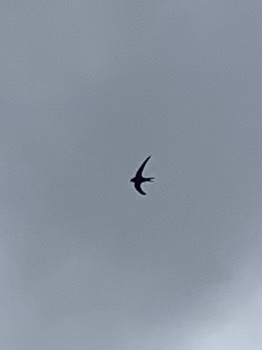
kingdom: Animalia
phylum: Chordata
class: Aves
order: Apodiformes
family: Apodidae
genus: Apus
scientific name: Apus apus
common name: Common swift
